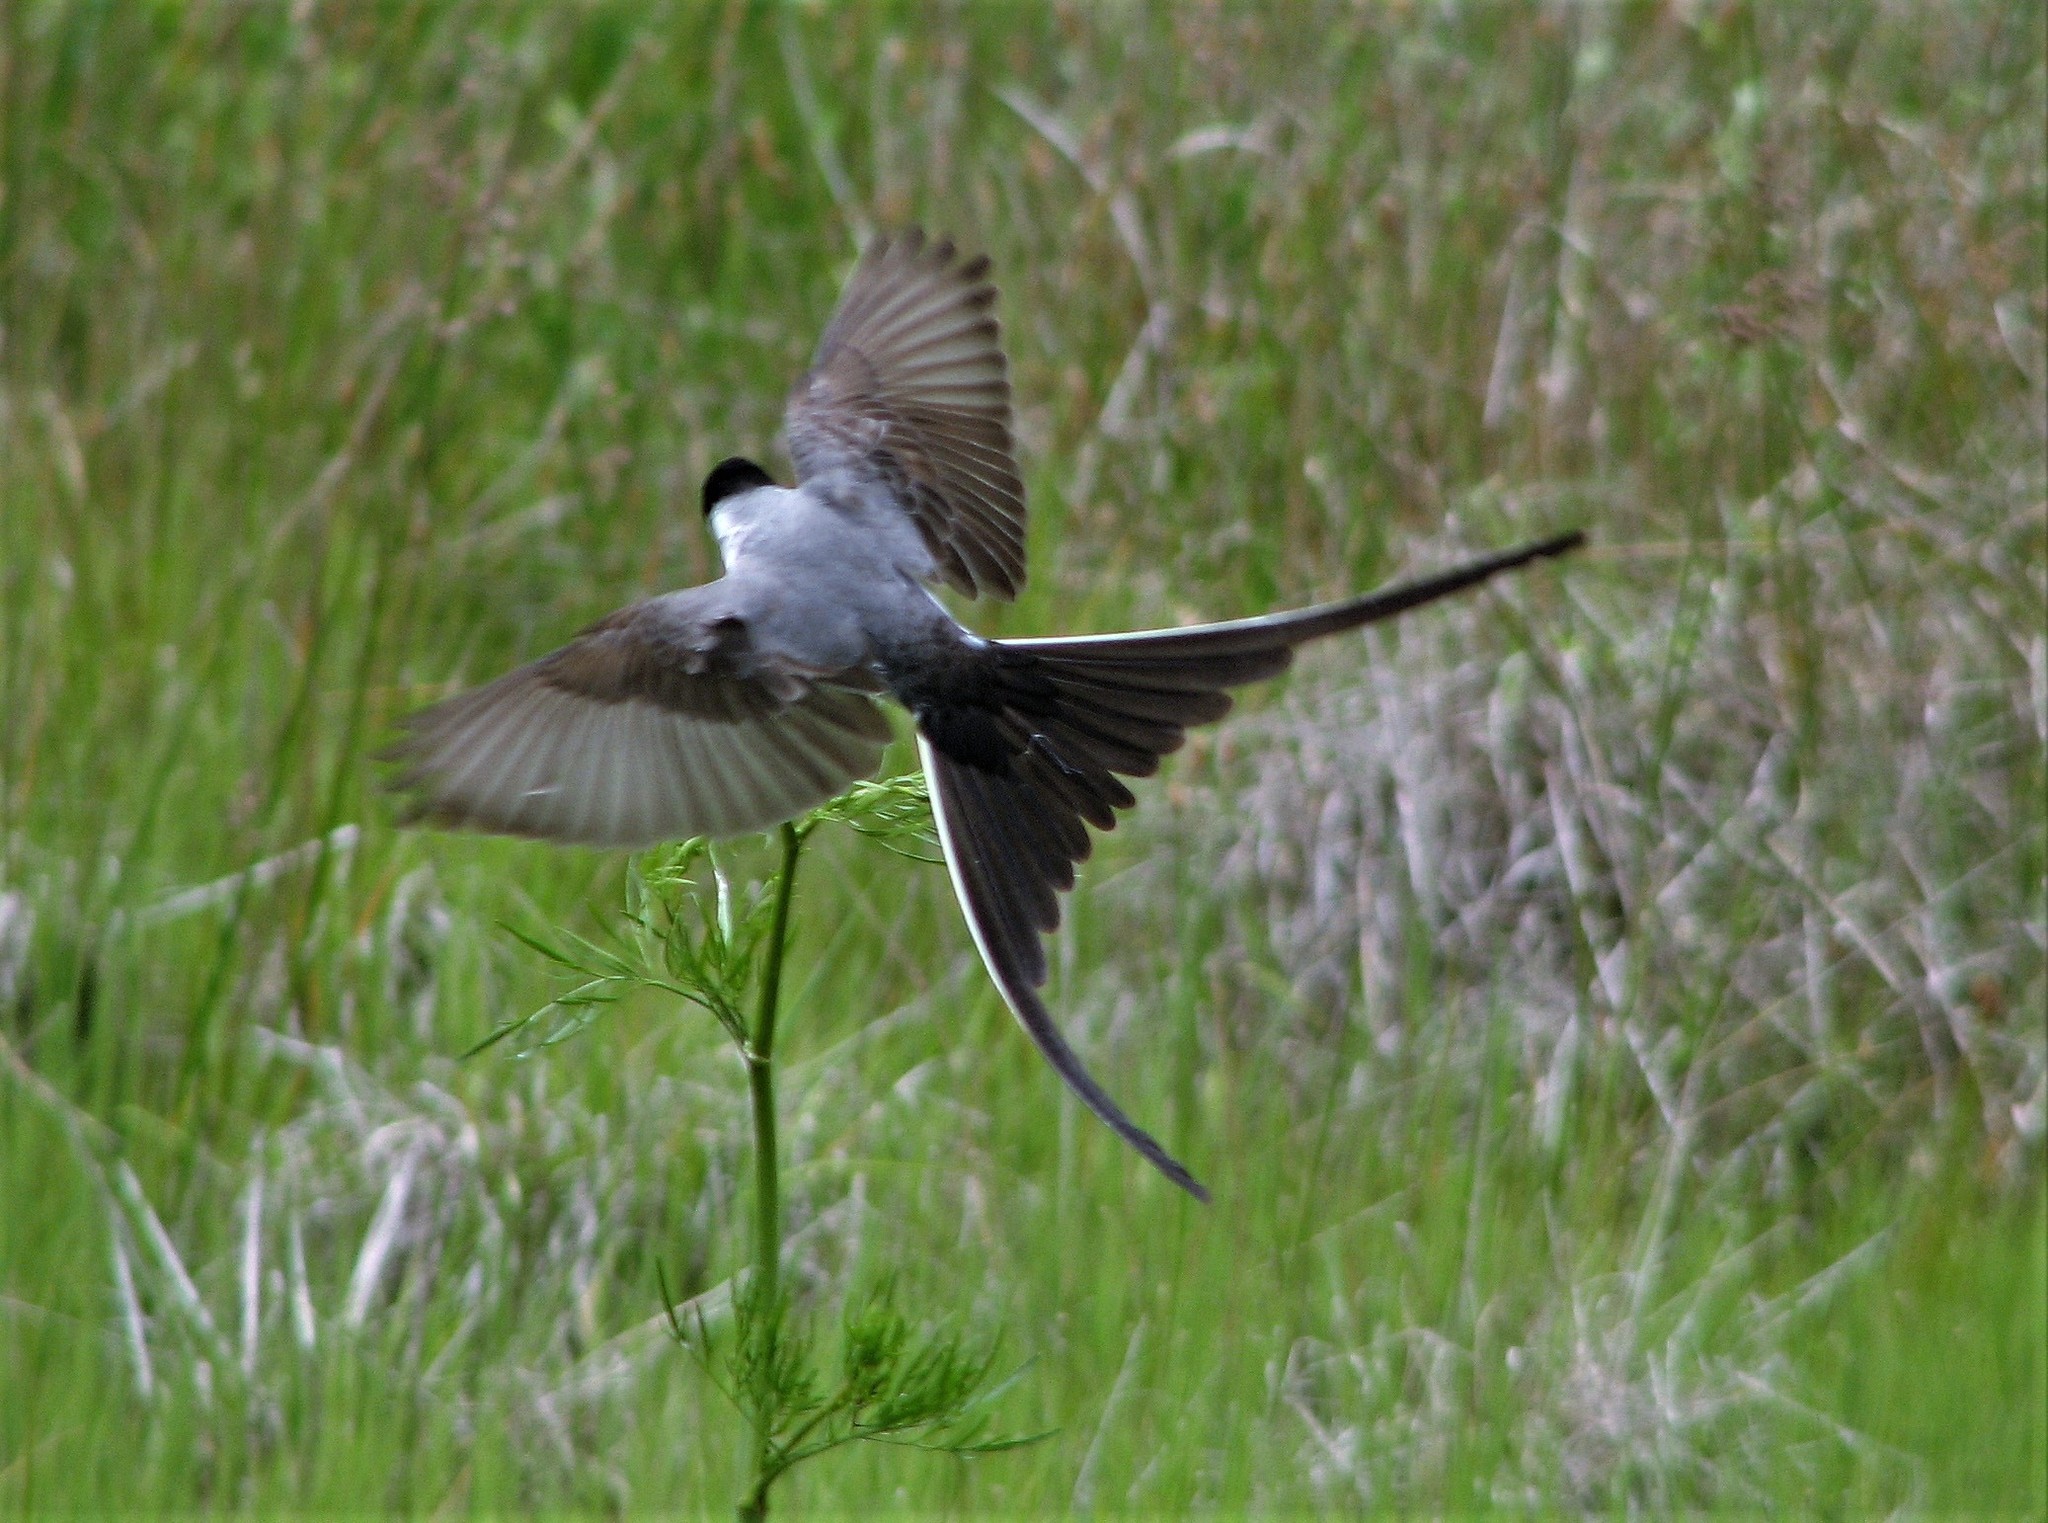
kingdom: Animalia
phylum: Chordata
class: Aves
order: Passeriformes
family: Tyrannidae
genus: Tyrannus
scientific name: Tyrannus savana
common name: Fork-tailed flycatcher
